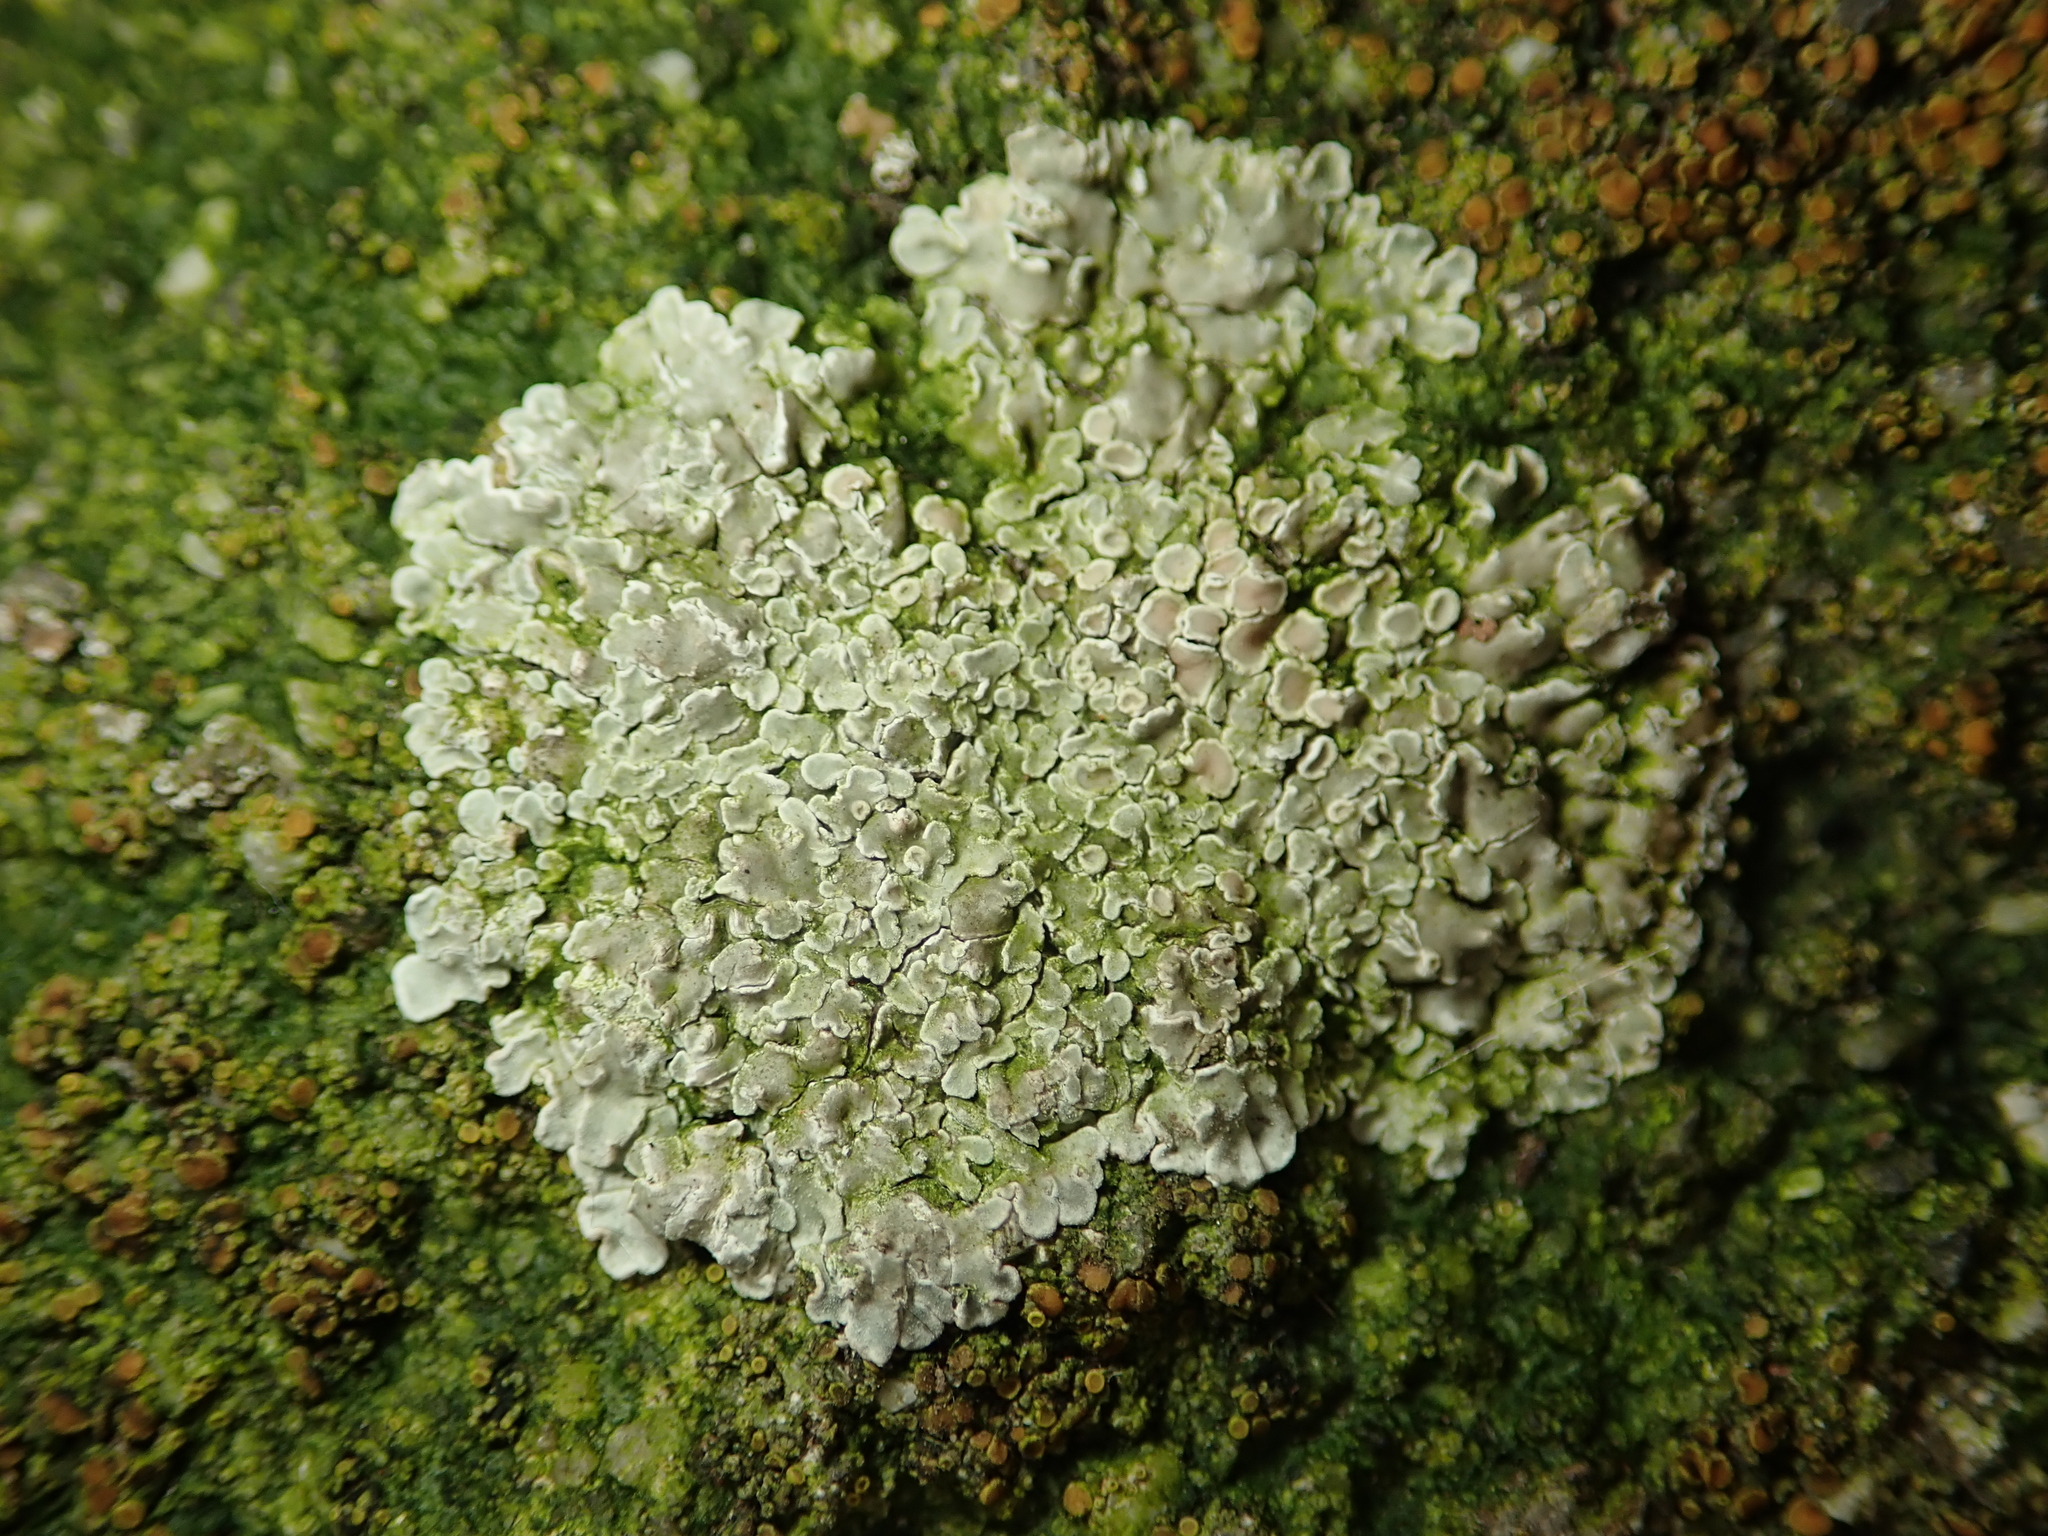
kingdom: Fungi
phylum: Ascomycota
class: Lecanoromycetes
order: Lecanorales
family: Lecanoraceae
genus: Protoparmeliopsis
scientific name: Protoparmeliopsis muralis
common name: Stonewall rim lichen
